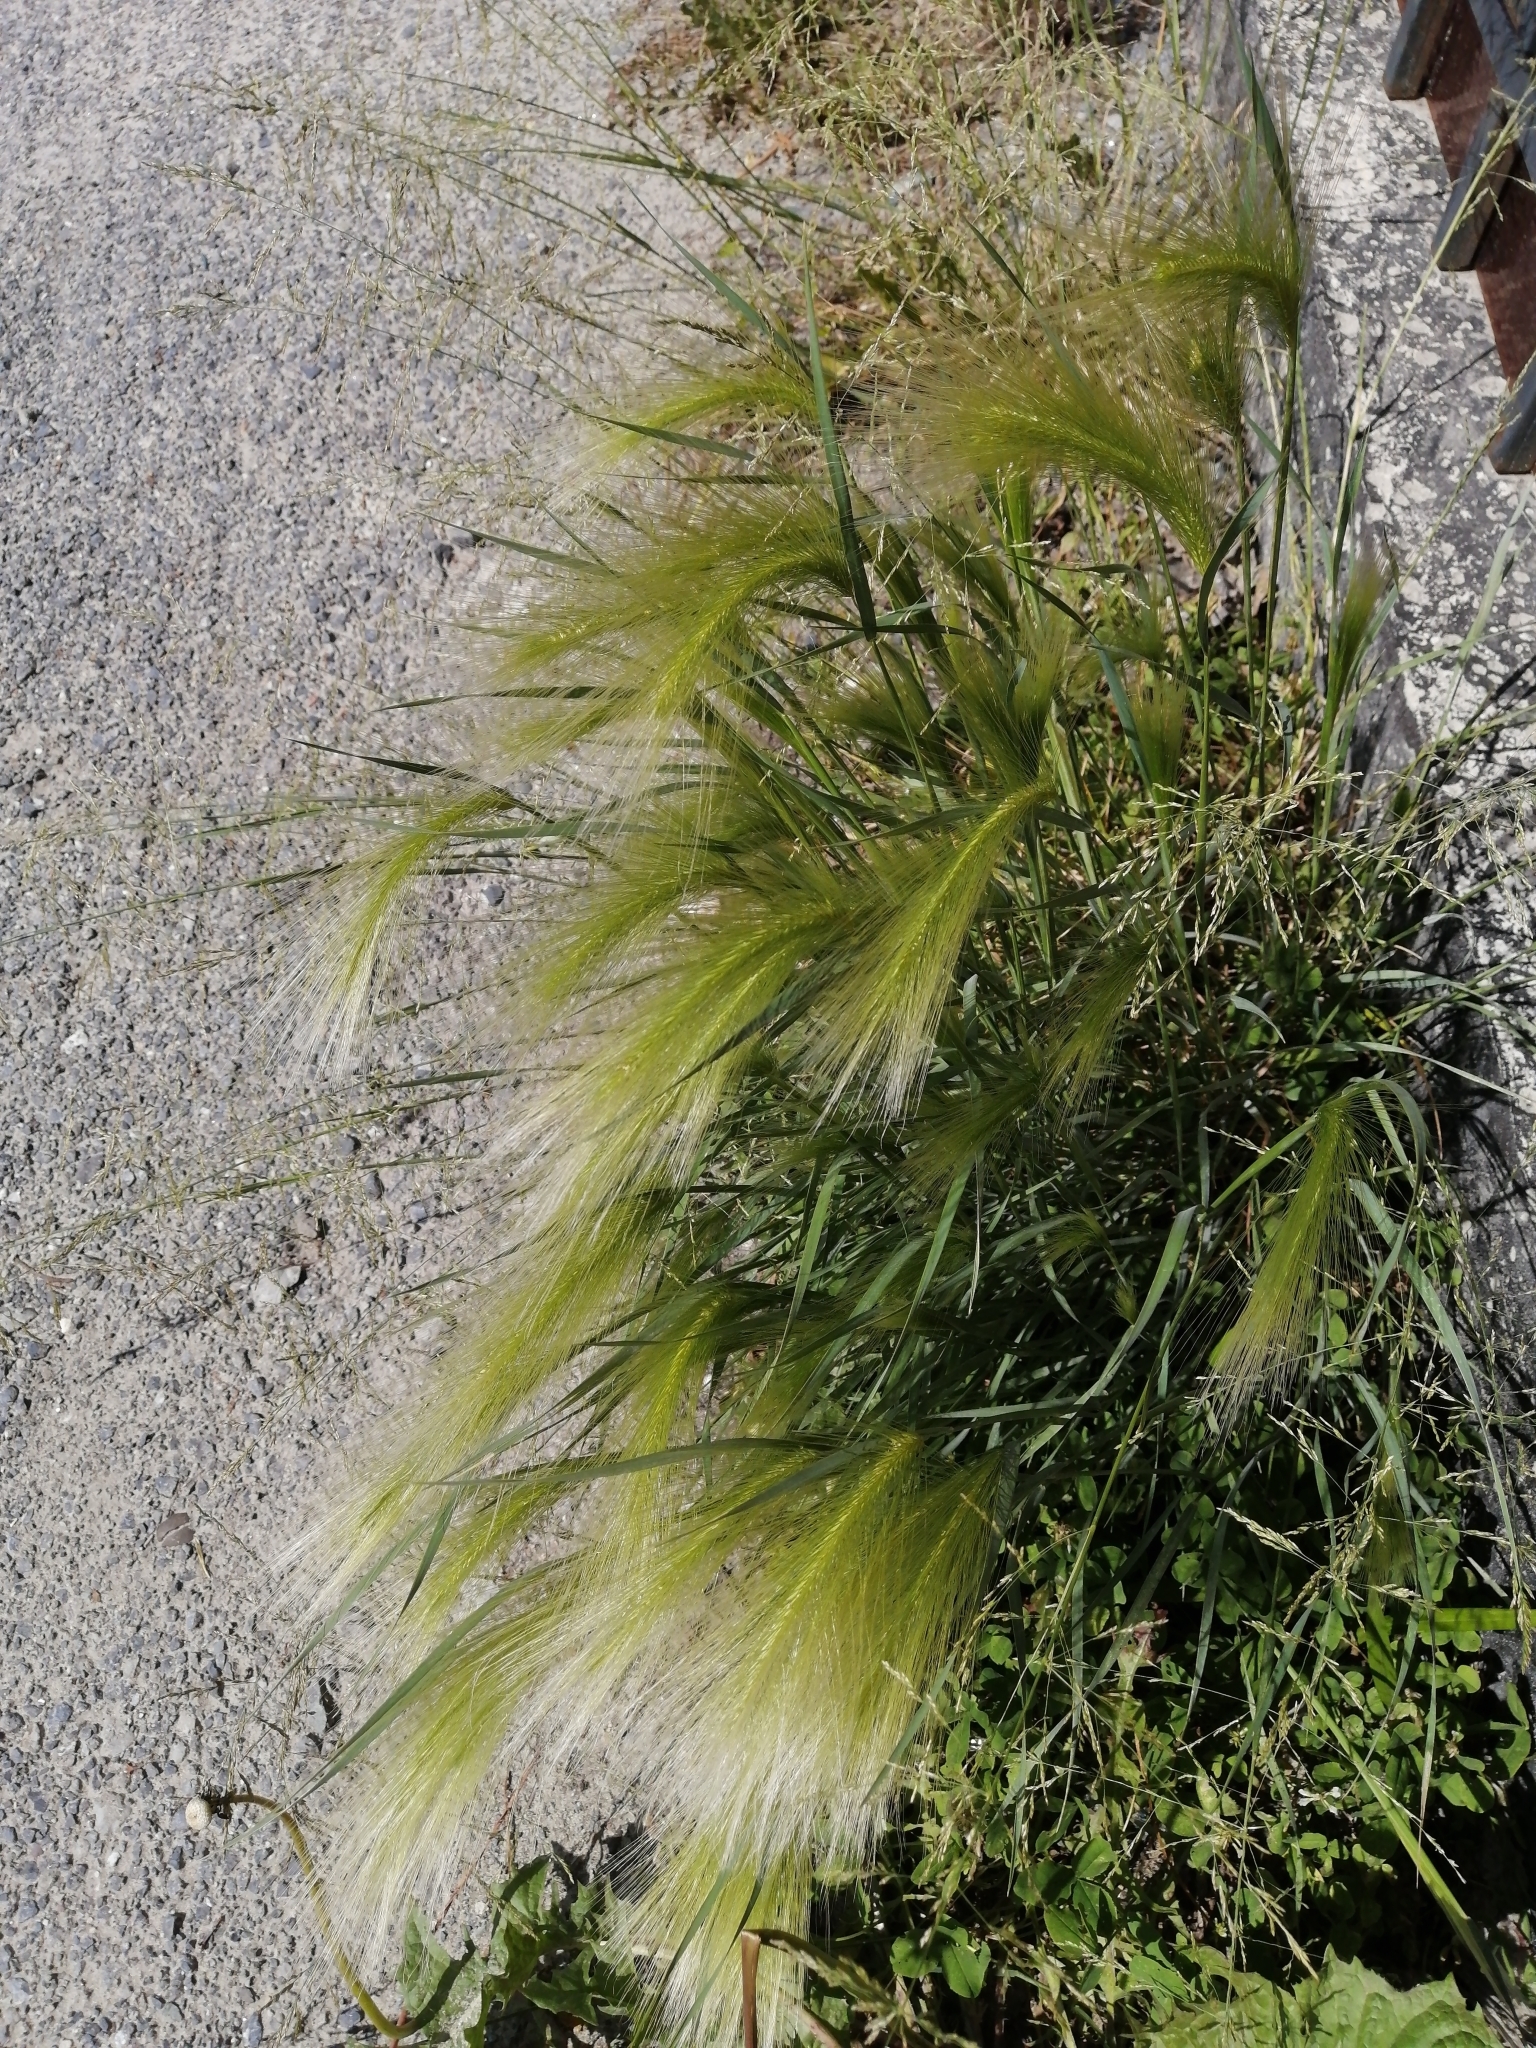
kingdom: Plantae
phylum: Tracheophyta
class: Liliopsida
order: Poales
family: Poaceae
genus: Hordeum
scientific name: Hordeum jubatum
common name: Foxtail barley
